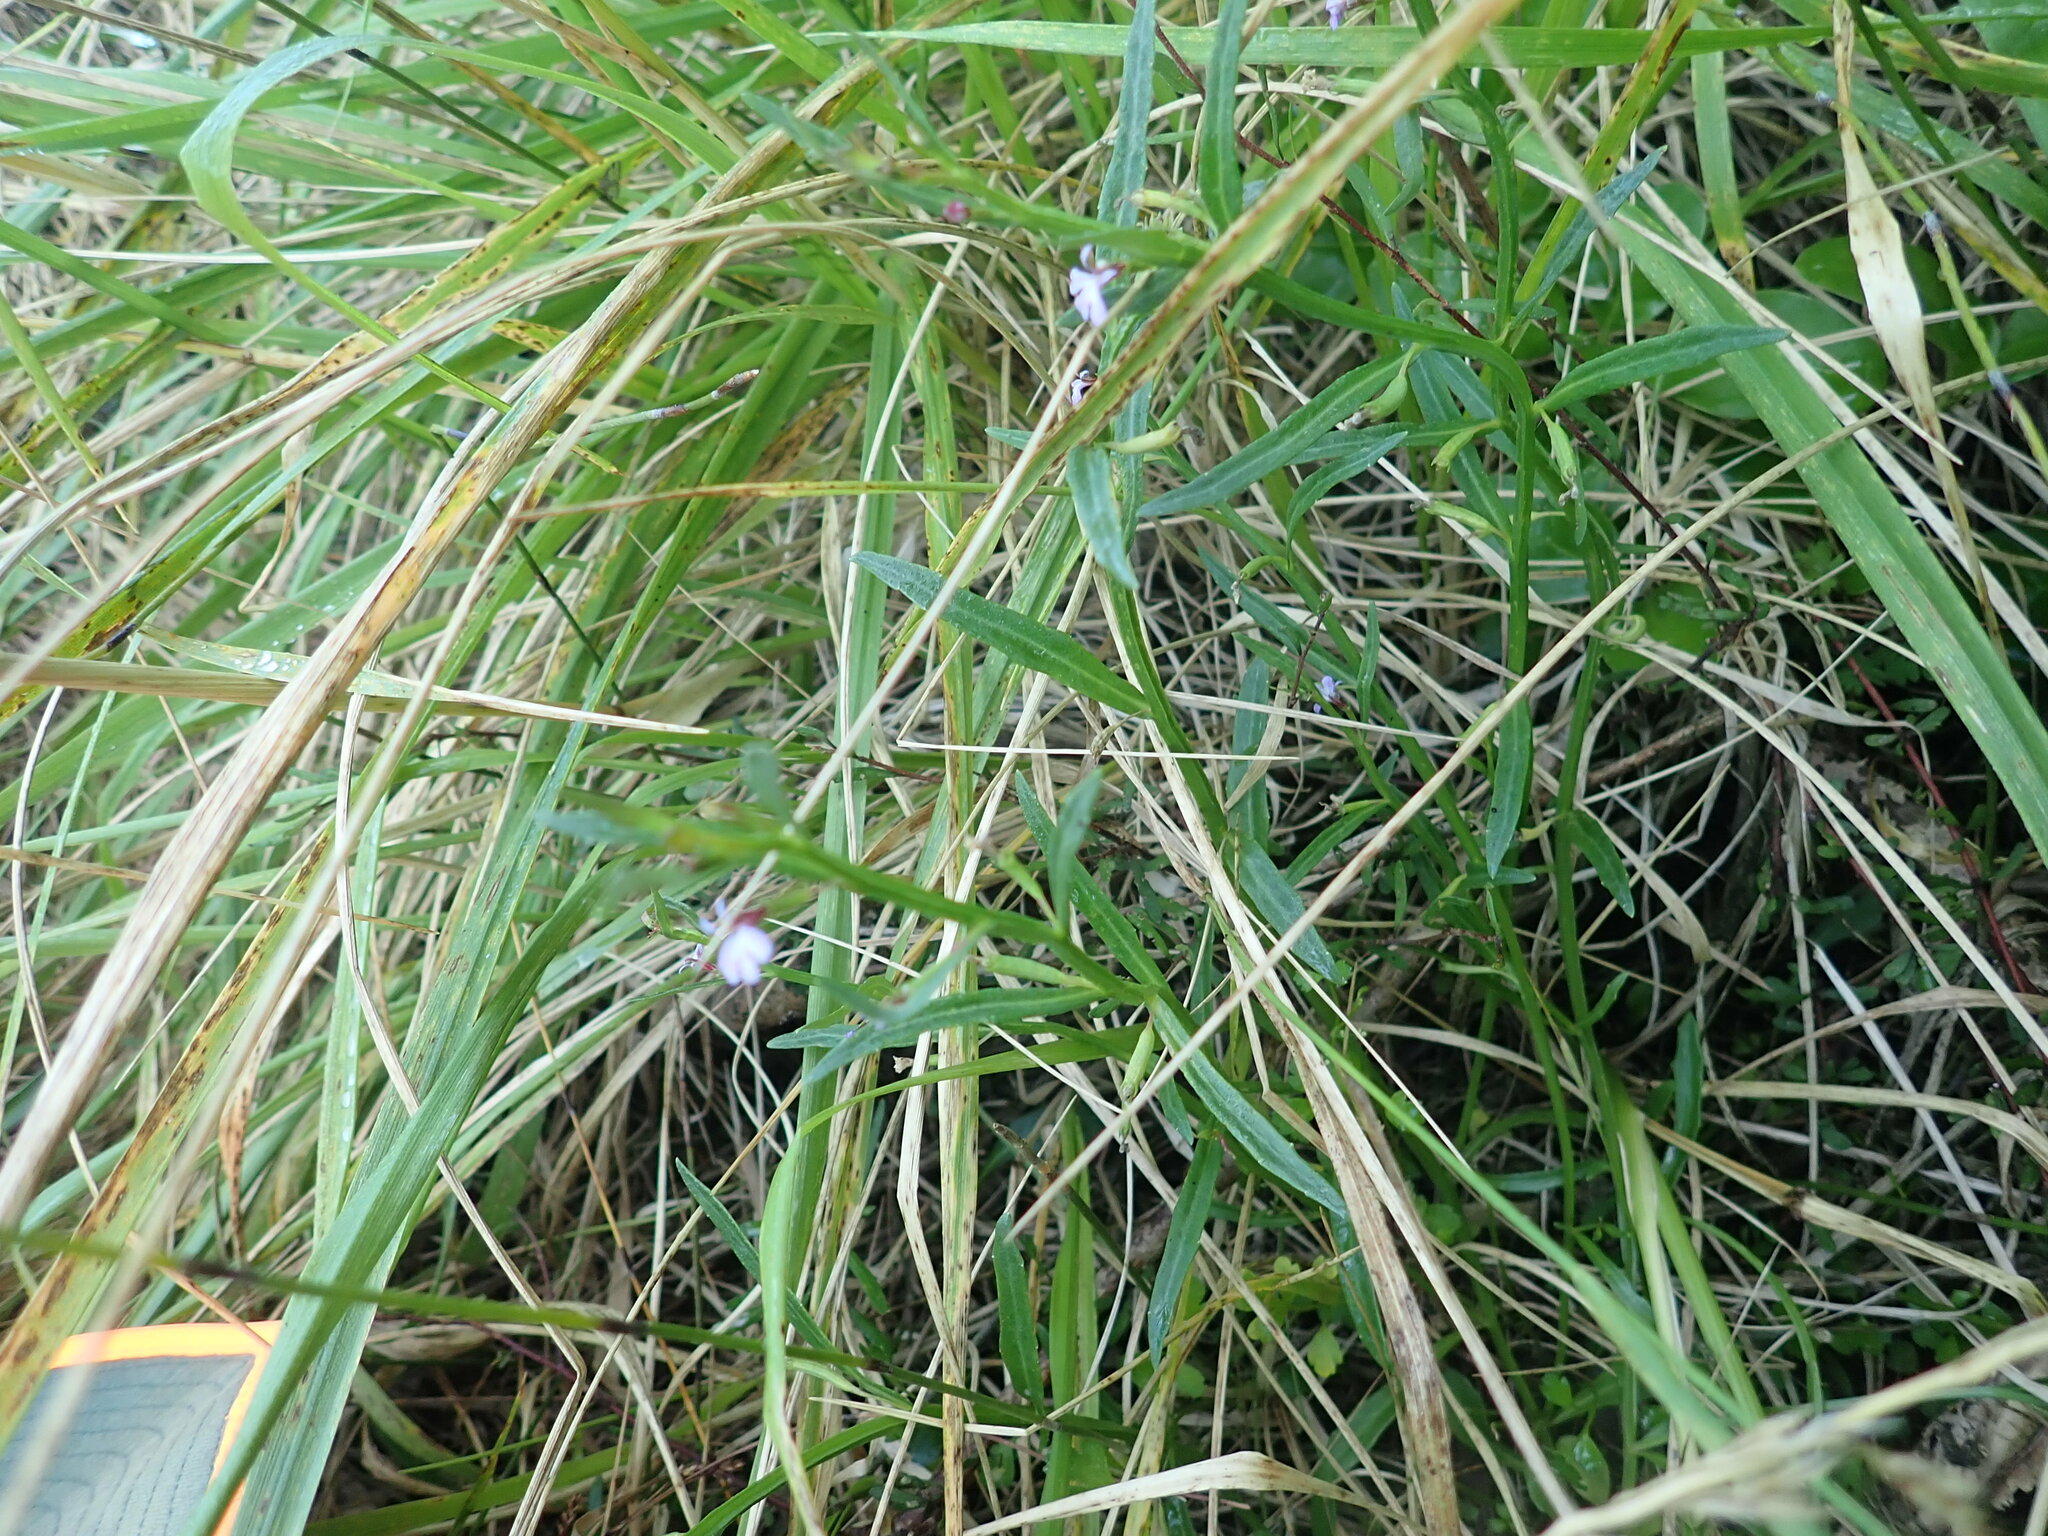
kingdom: Plantae
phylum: Tracheophyta
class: Magnoliopsida
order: Asterales
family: Campanulaceae
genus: Lobelia
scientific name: Lobelia anceps
